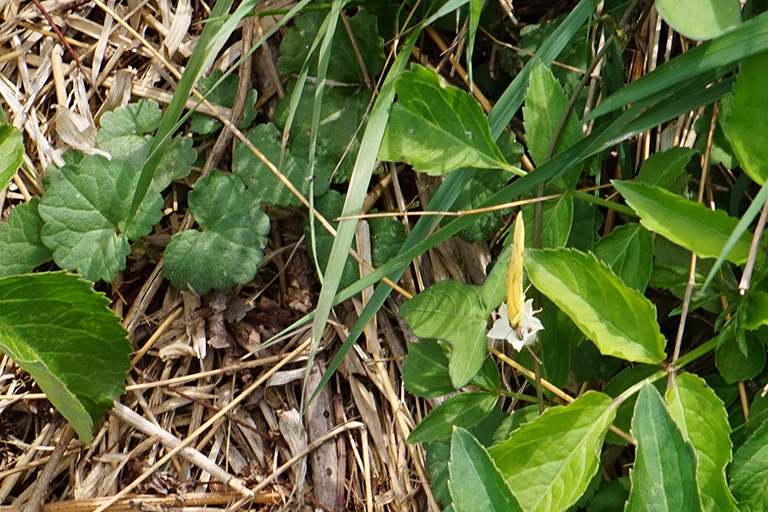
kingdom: Animalia
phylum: Arthropoda
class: Insecta
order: Lepidoptera
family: Pieridae
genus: Abaeis
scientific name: Abaeis nicippe
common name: Sleepy orange
